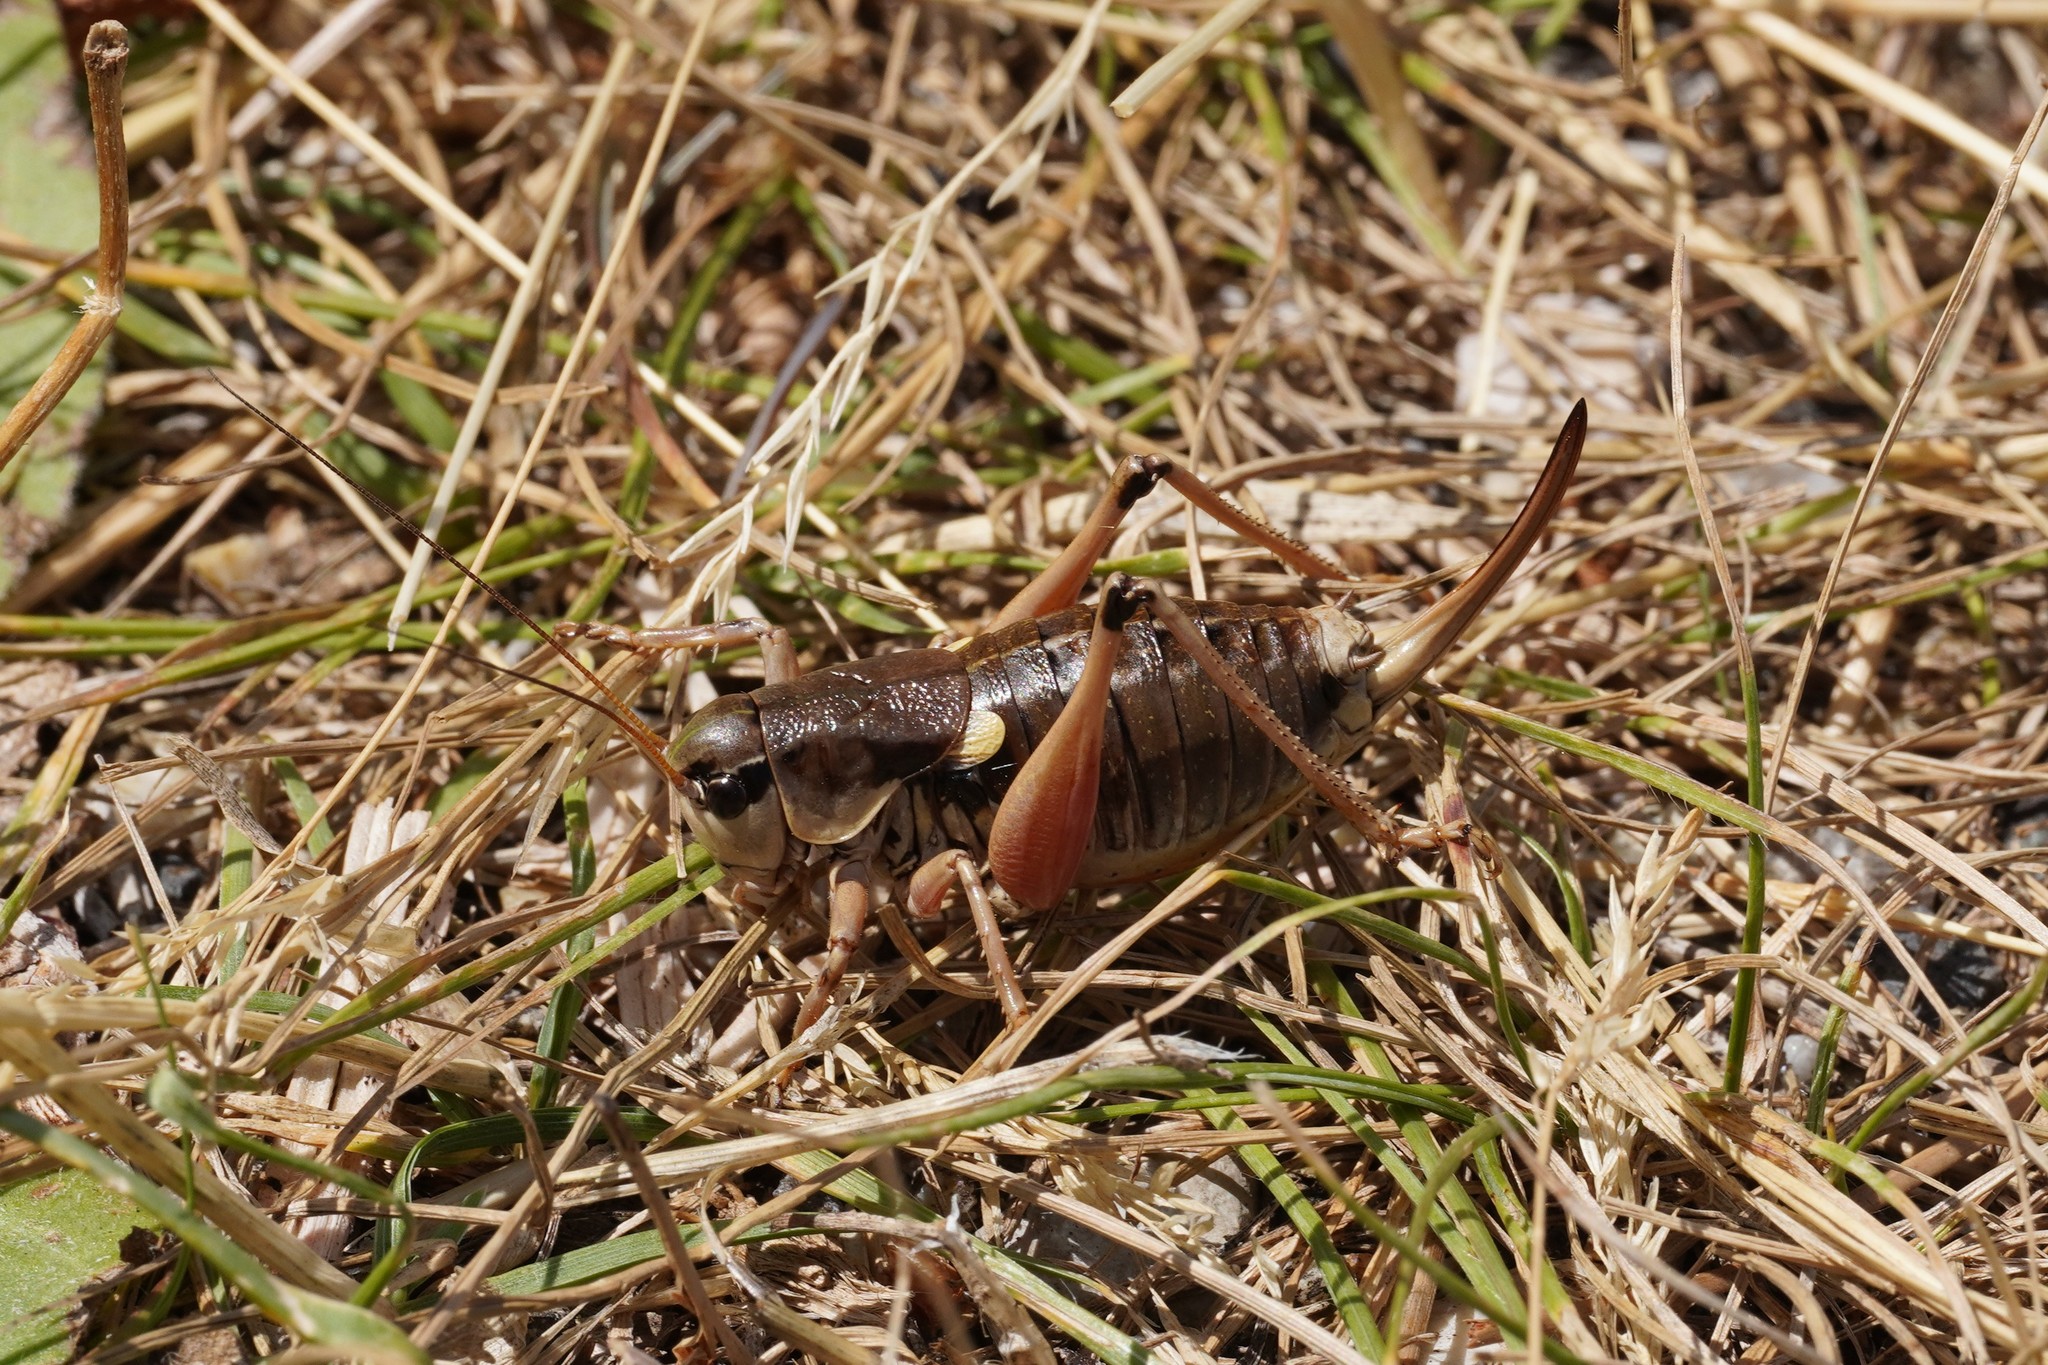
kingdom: Animalia
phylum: Arthropoda
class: Insecta
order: Orthoptera
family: Tettigoniidae
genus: Anonconotus
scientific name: Anonconotus ghilianii
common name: Ghiliani's alpine bush-cricket
